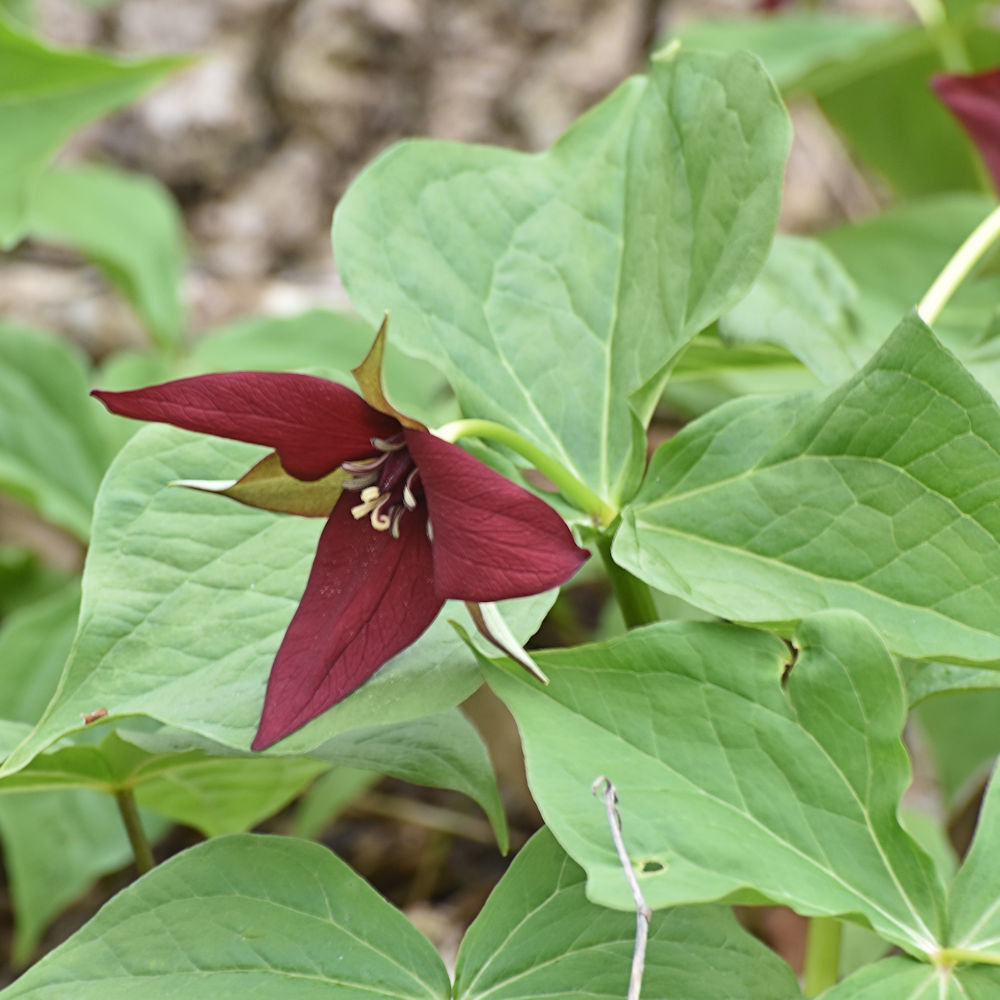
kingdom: Plantae
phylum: Tracheophyta
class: Liliopsida
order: Liliales
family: Melanthiaceae
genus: Trillium
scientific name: Trillium erectum
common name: Purple trillium
